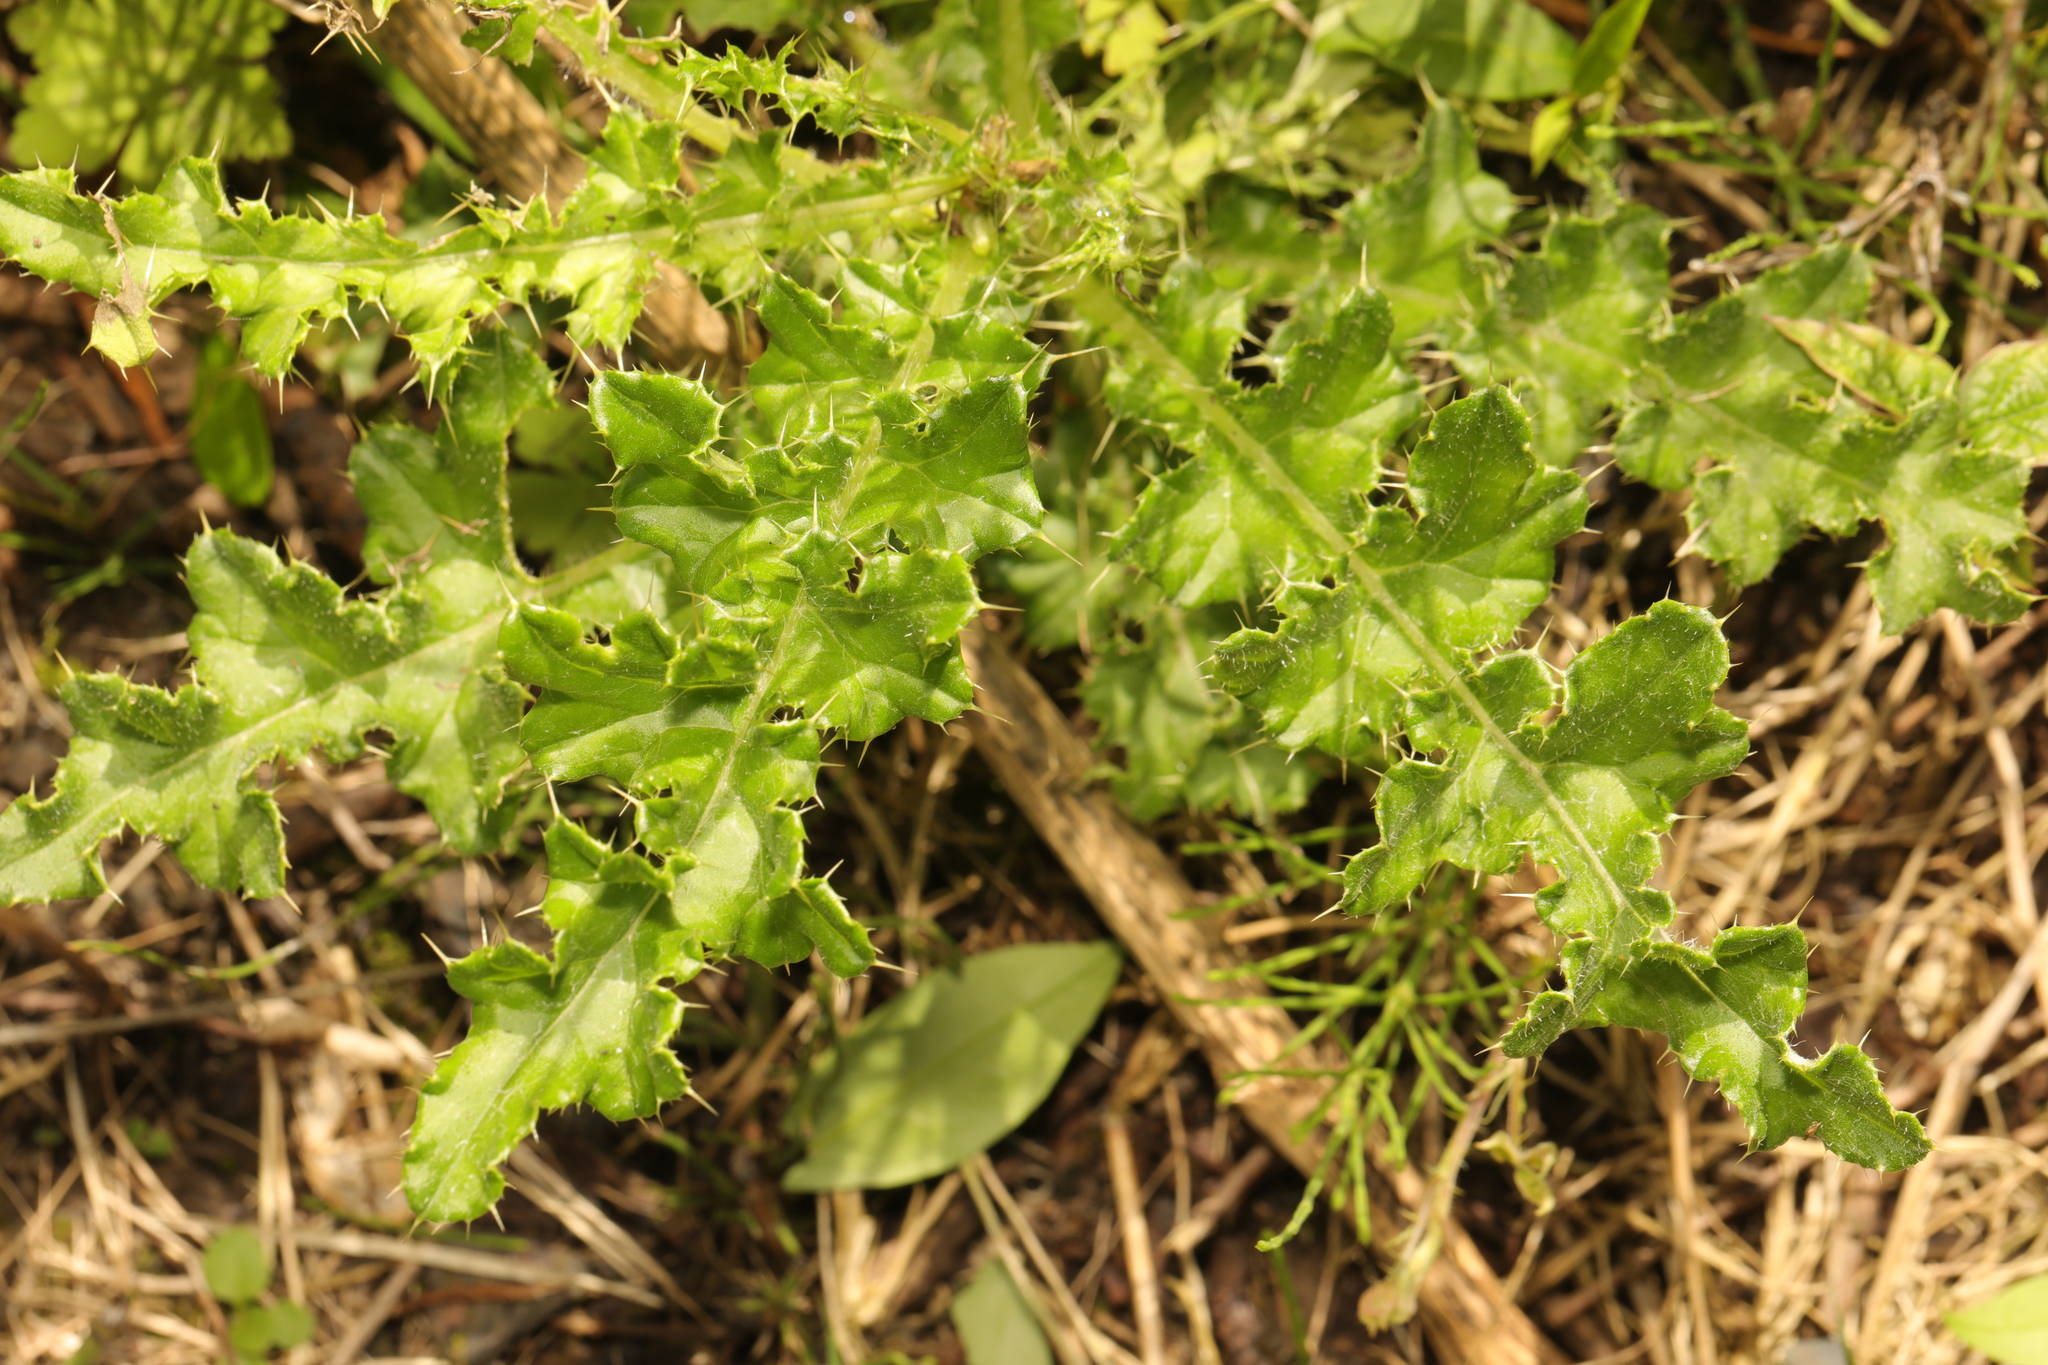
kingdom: Plantae
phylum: Tracheophyta
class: Magnoliopsida
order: Asterales
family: Asteraceae
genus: Cirsium
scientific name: Cirsium arvense
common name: Creeping thistle
